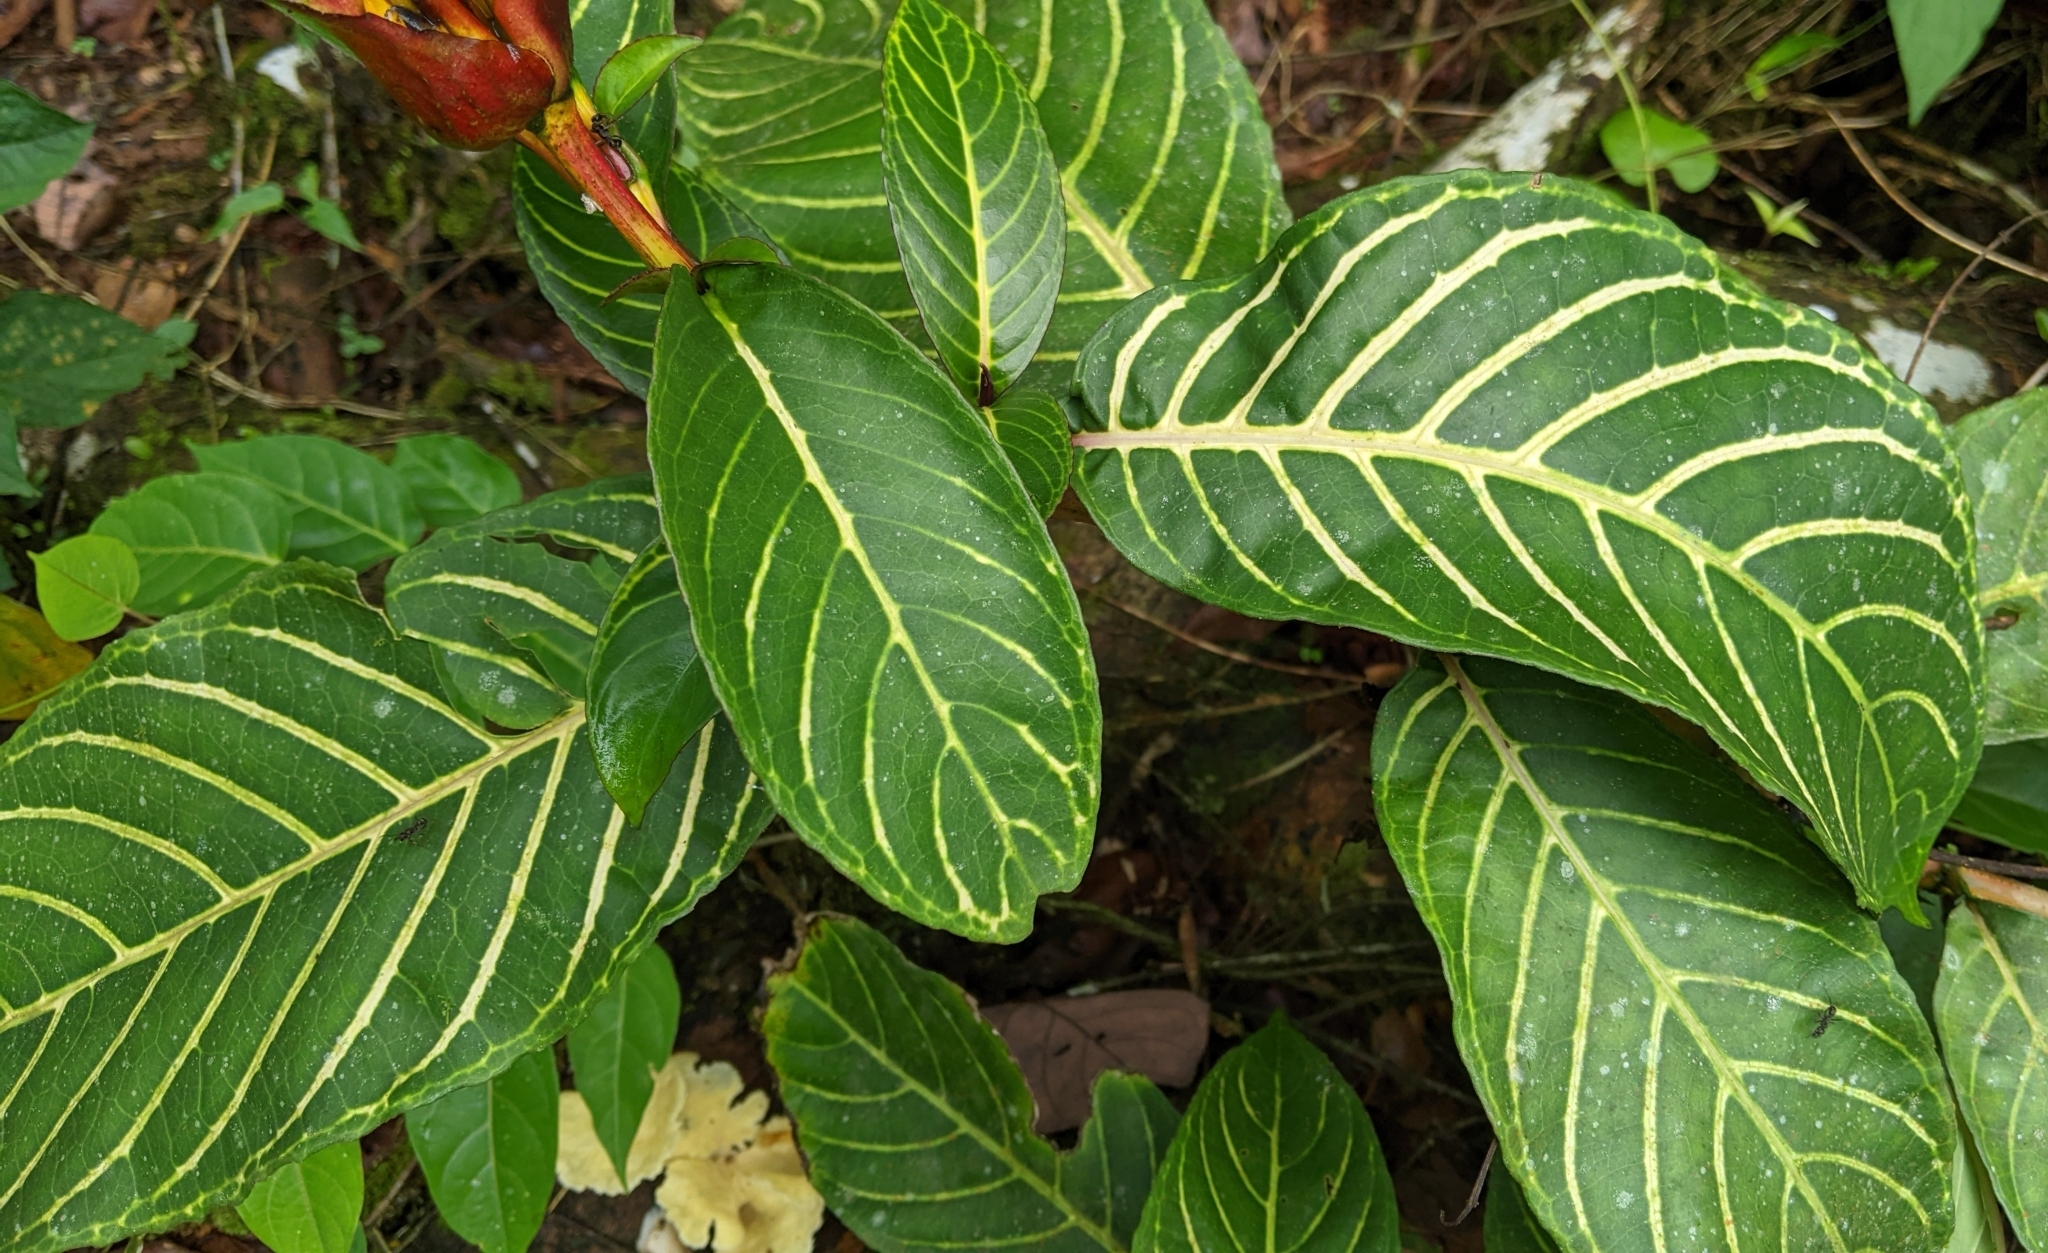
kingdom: Plantae
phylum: Tracheophyta
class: Magnoliopsida
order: Lamiales
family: Acanthaceae
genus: Sanchezia
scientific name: Sanchezia oblonga
